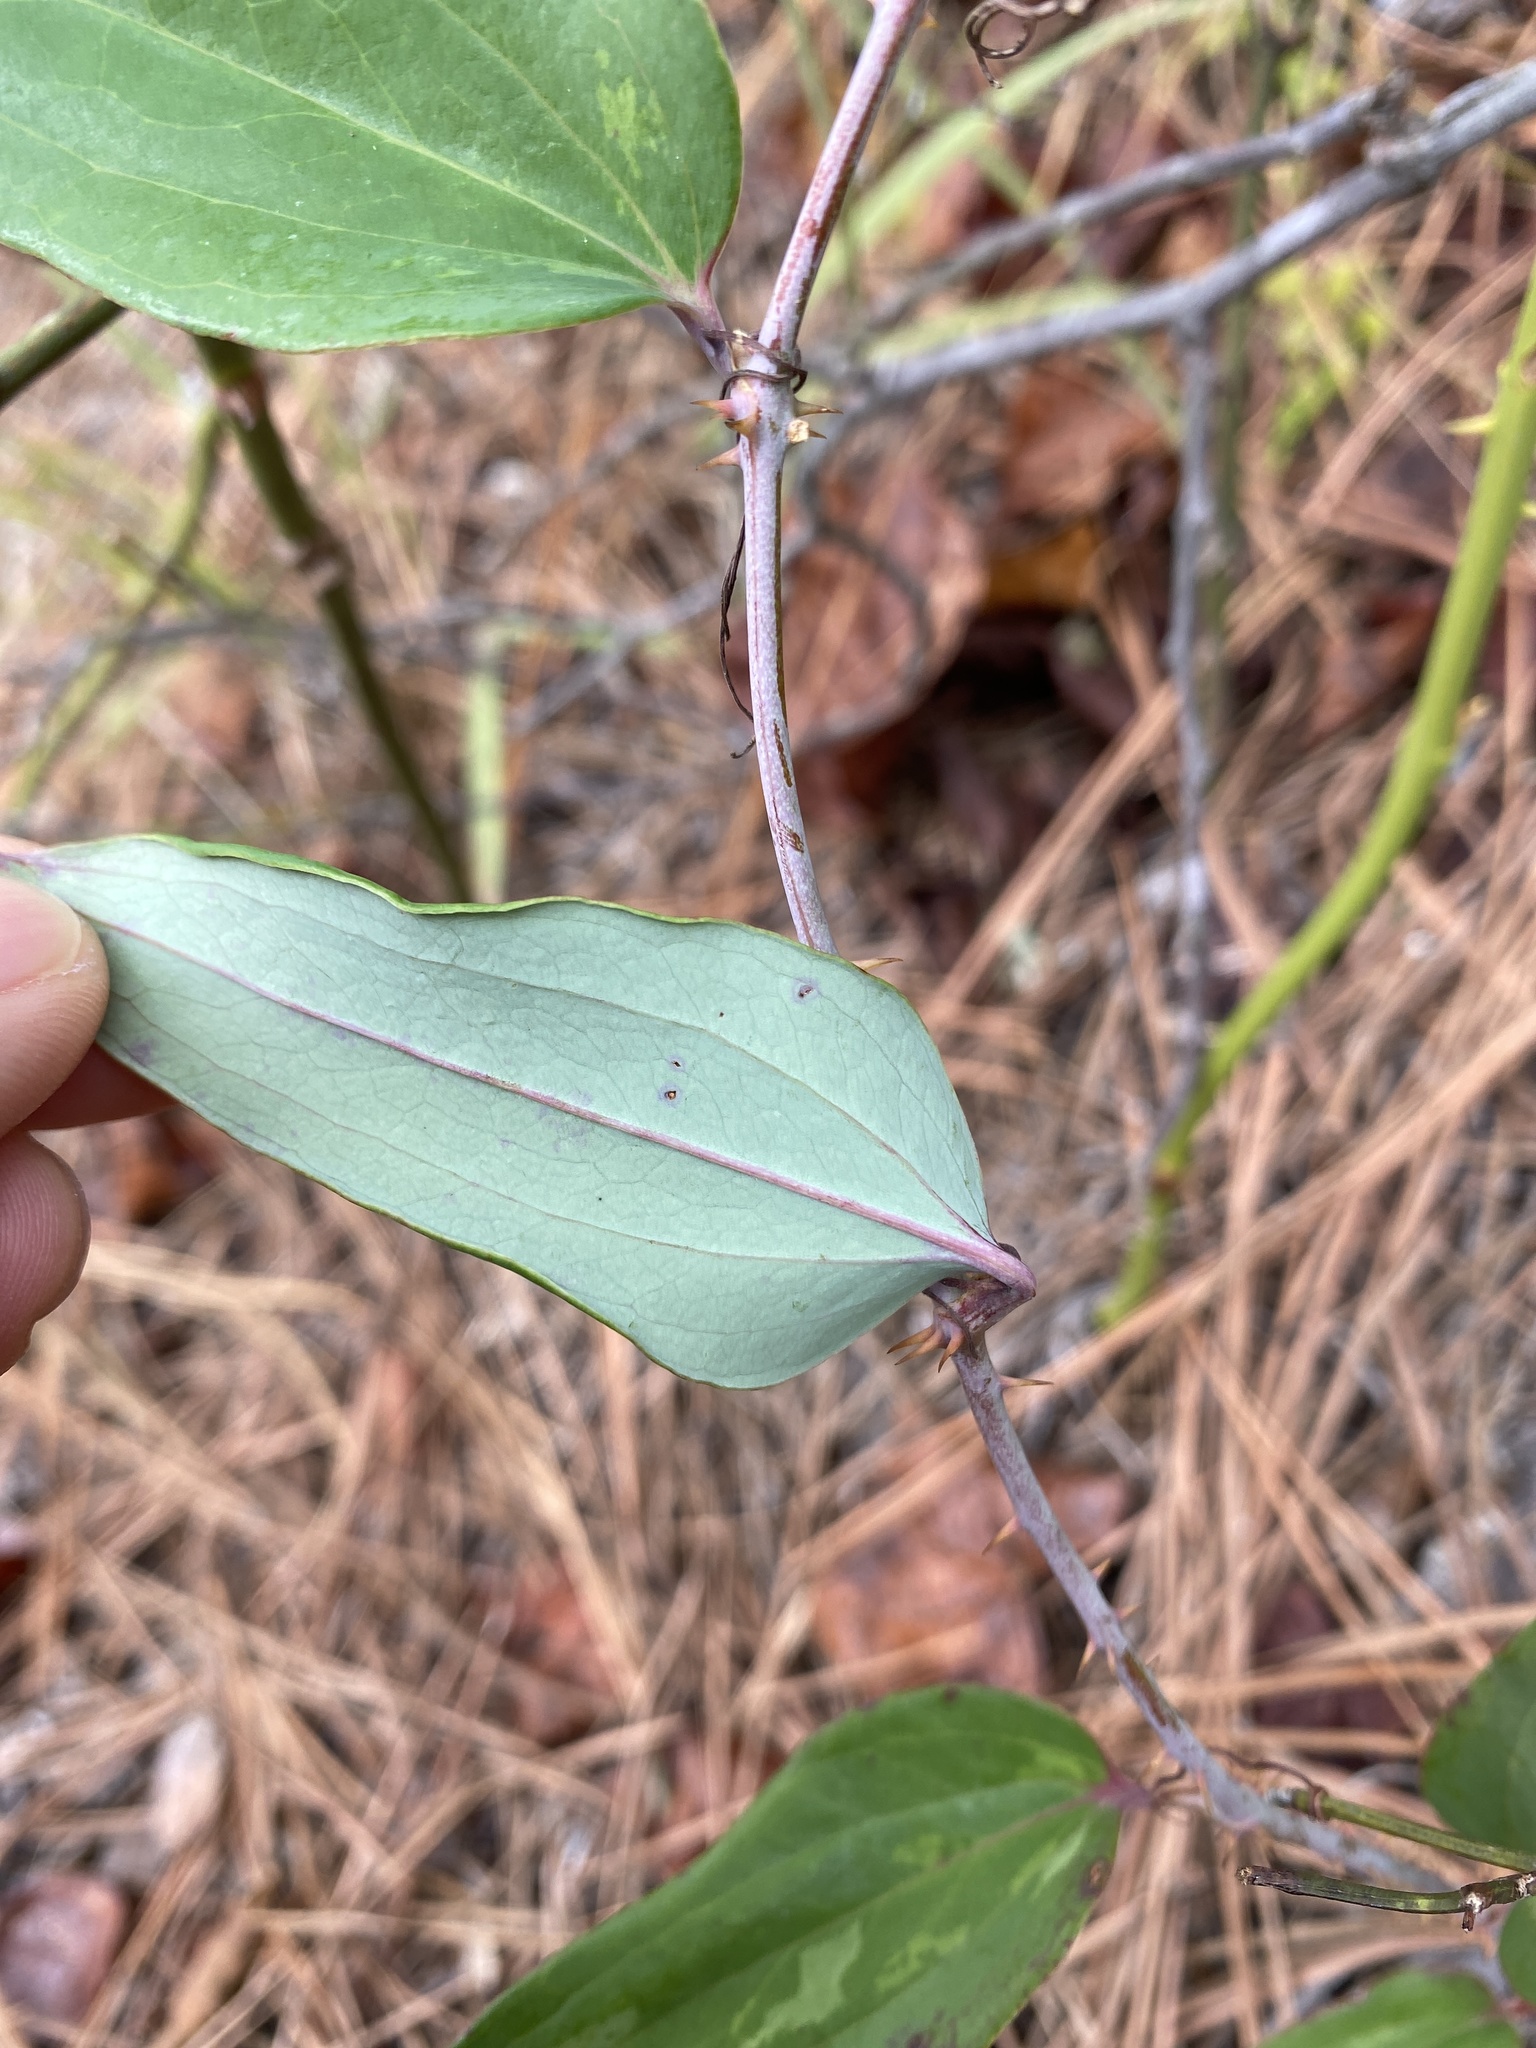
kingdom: Plantae
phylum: Tracheophyta
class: Liliopsida
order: Liliales
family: Smilacaceae
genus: Smilax
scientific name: Smilax glauca
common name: Cat greenbrier
